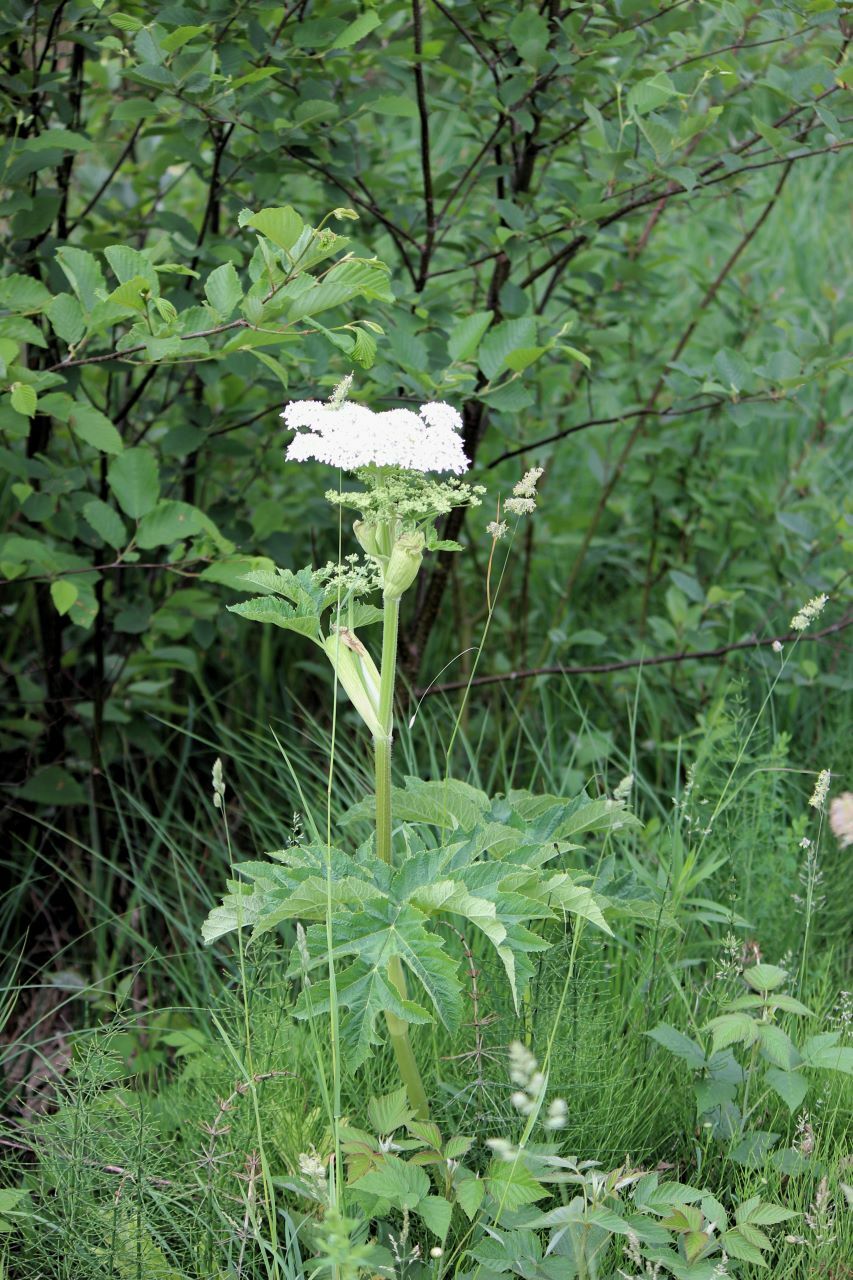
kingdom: Plantae
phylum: Tracheophyta
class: Magnoliopsida
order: Apiales
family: Apiaceae
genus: Heracleum
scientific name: Heracleum maximum
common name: American cow parsnip
